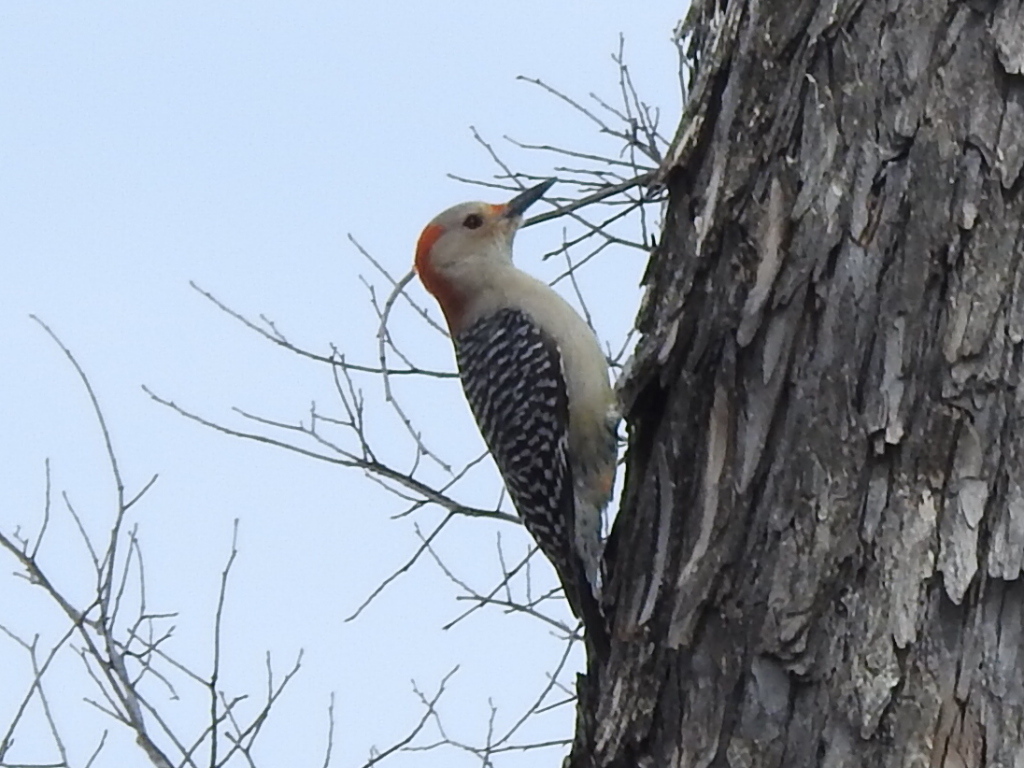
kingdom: Animalia
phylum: Chordata
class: Aves
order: Piciformes
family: Picidae
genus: Melanerpes
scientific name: Melanerpes carolinus
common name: Red-bellied woodpecker
